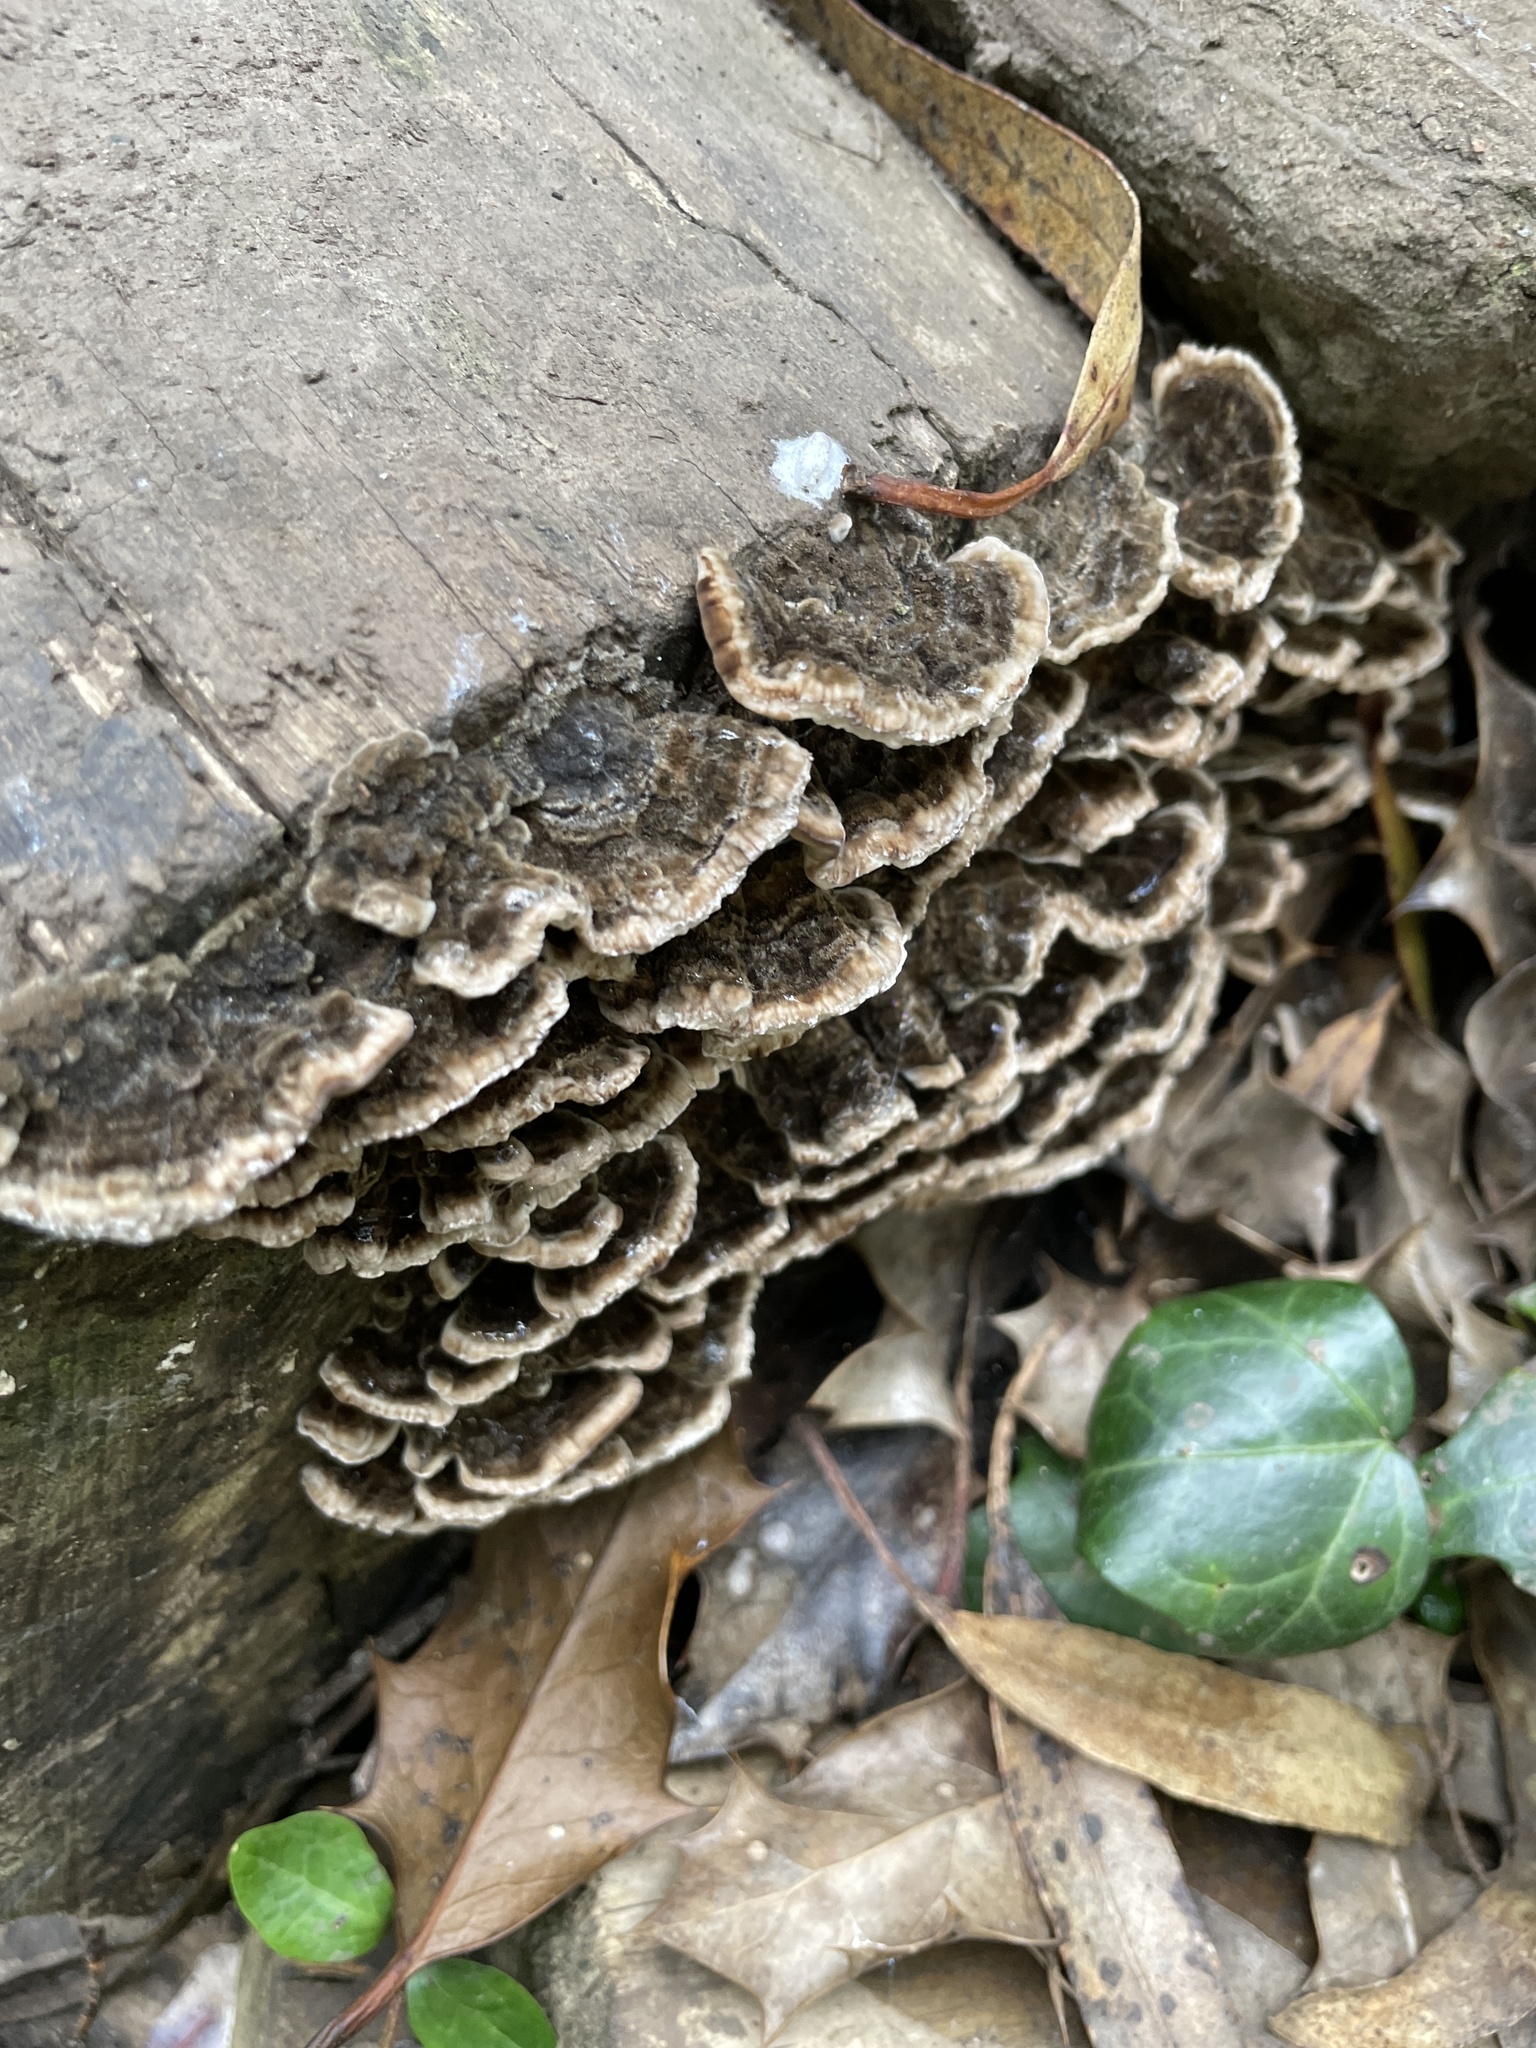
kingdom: Fungi
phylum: Basidiomycota
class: Agaricomycetes
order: Polyporales
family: Polyporaceae
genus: Trametes
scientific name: Trametes versicolor
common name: Turkeytail
